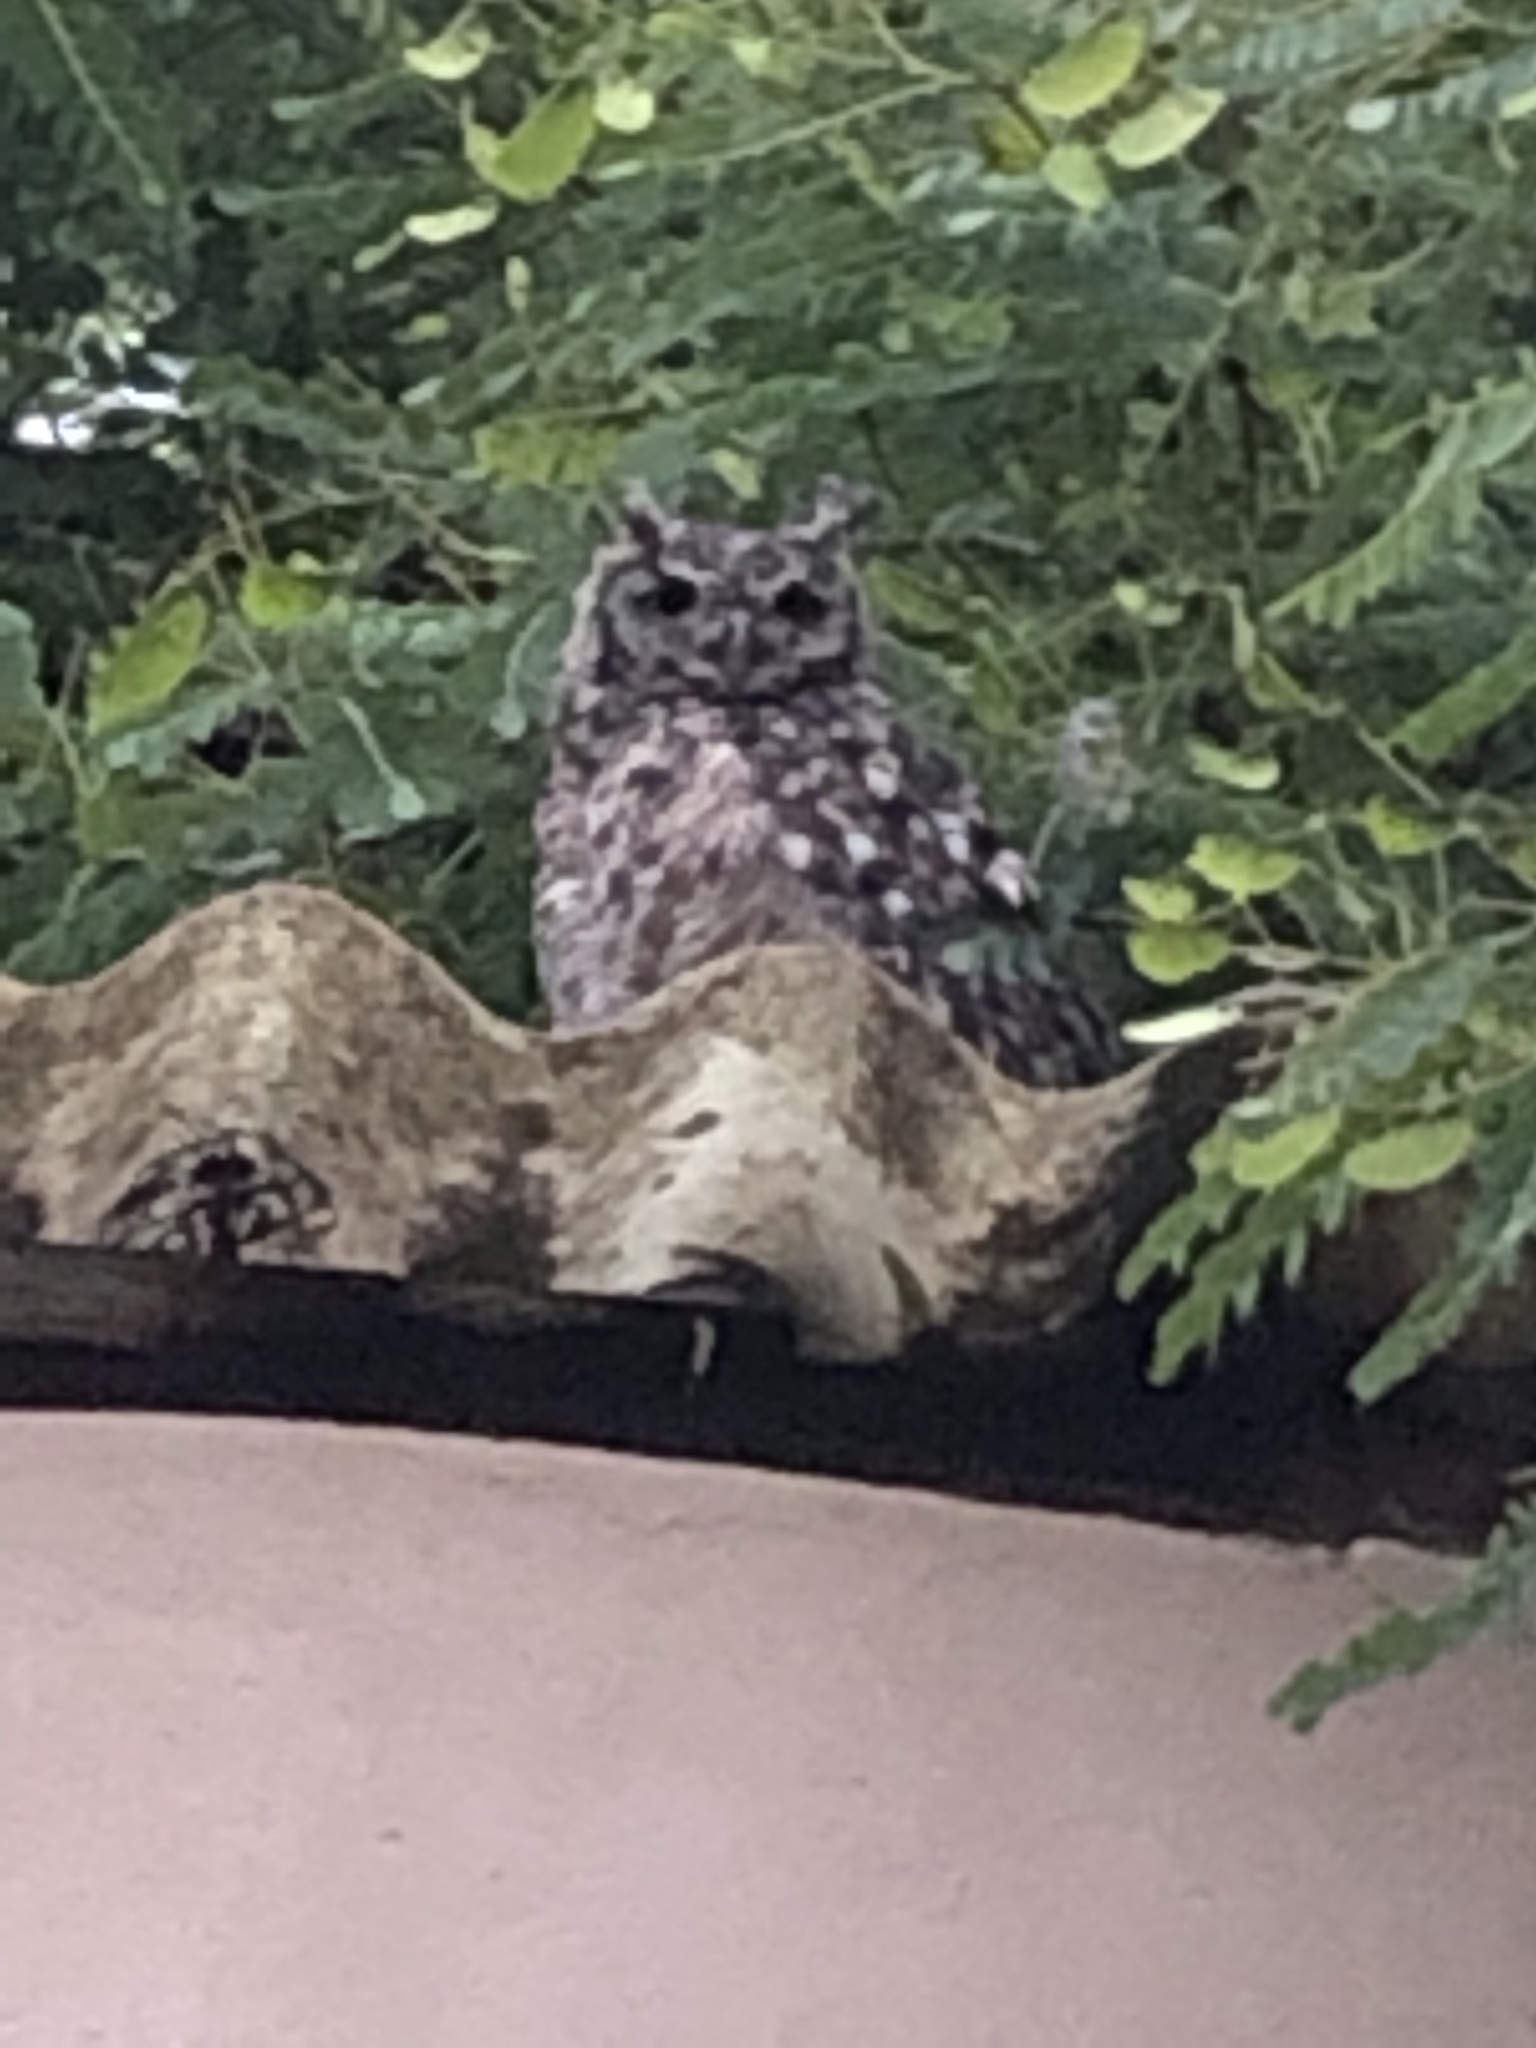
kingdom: Animalia
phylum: Chordata
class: Aves
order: Strigiformes
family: Strigidae
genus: Bubo
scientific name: Bubo africanus
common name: Spotted eagle-owl
